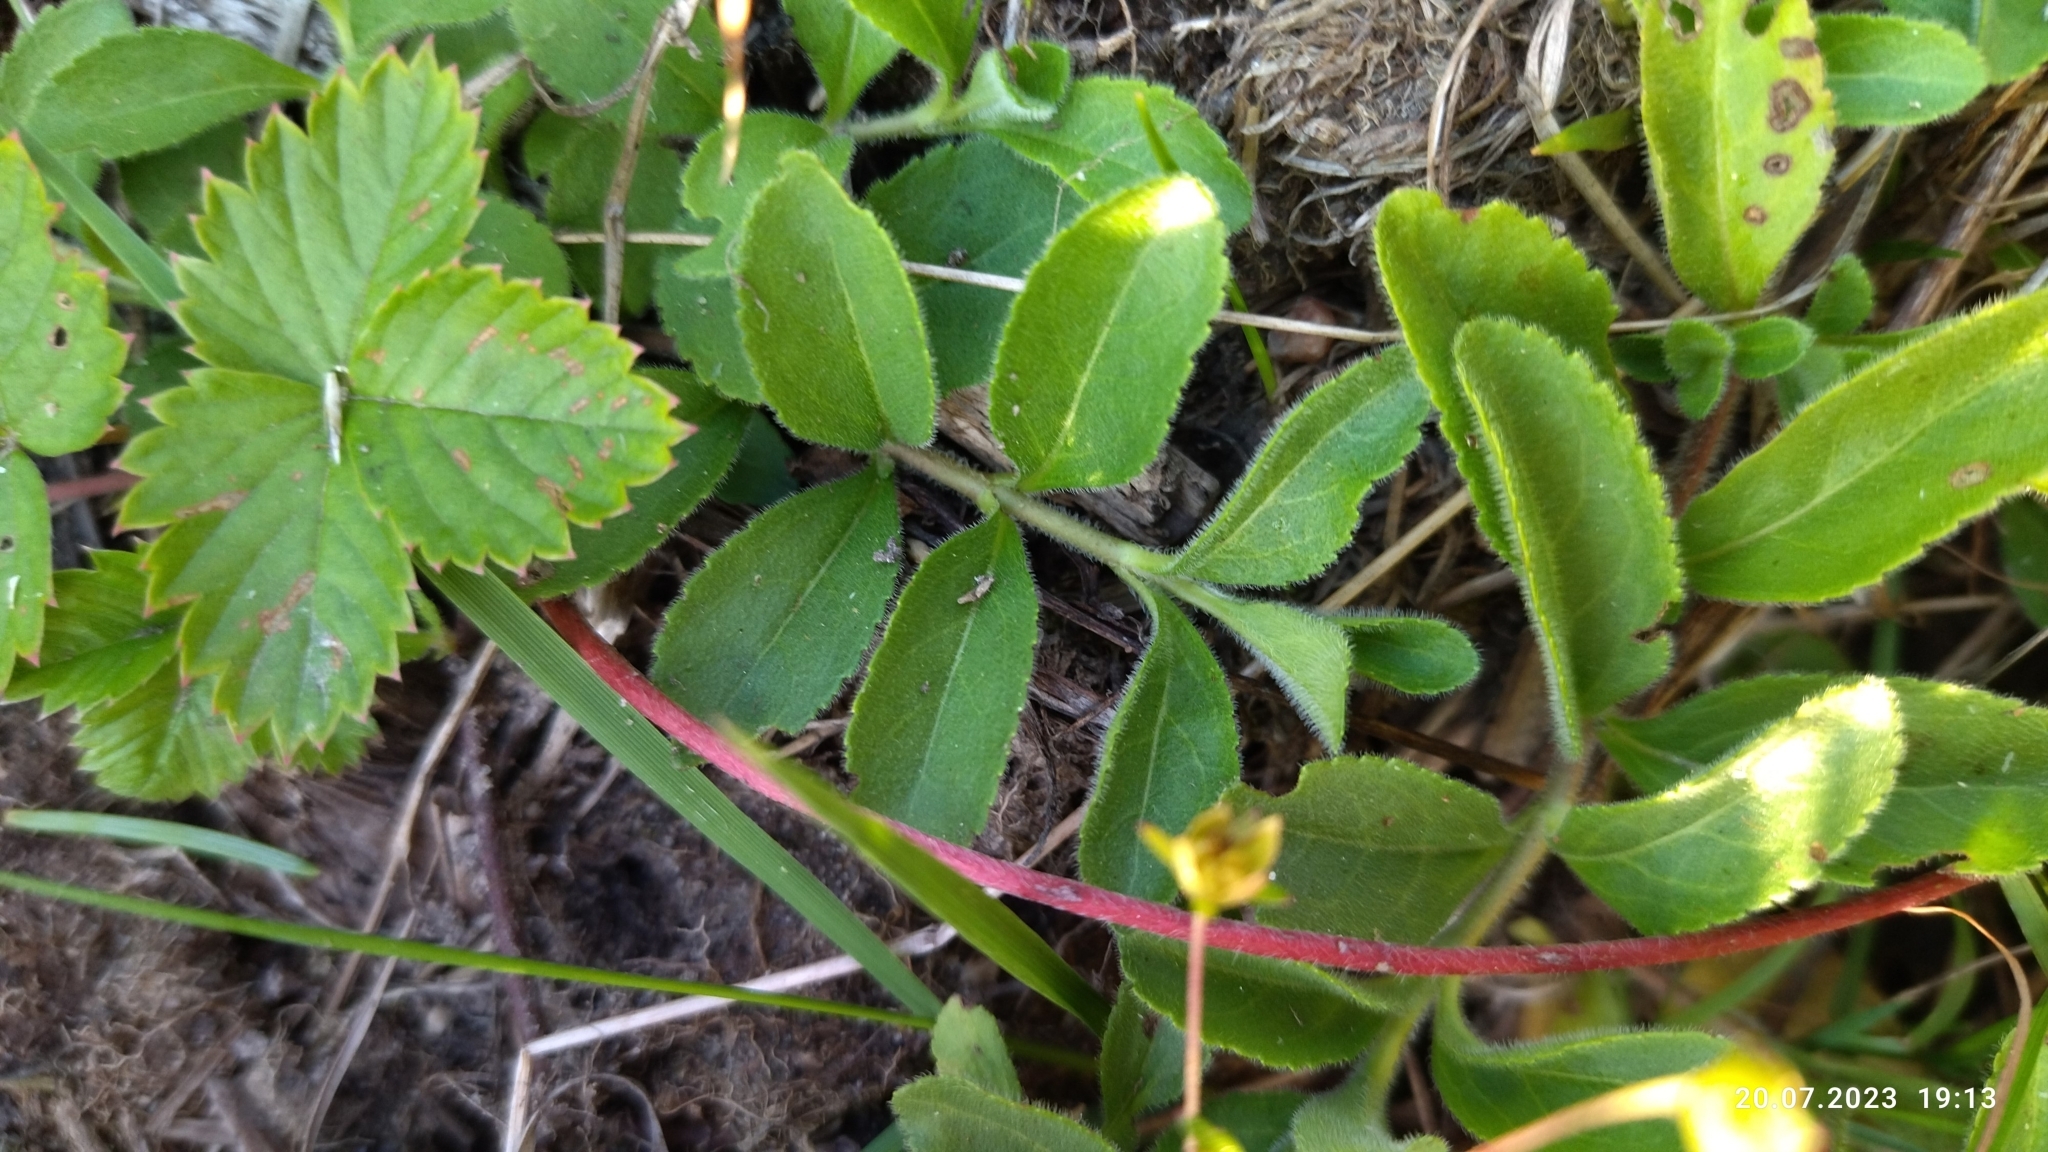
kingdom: Plantae
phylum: Tracheophyta
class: Magnoliopsida
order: Lamiales
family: Plantaginaceae
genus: Veronica
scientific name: Veronica officinalis
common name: Common speedwell
